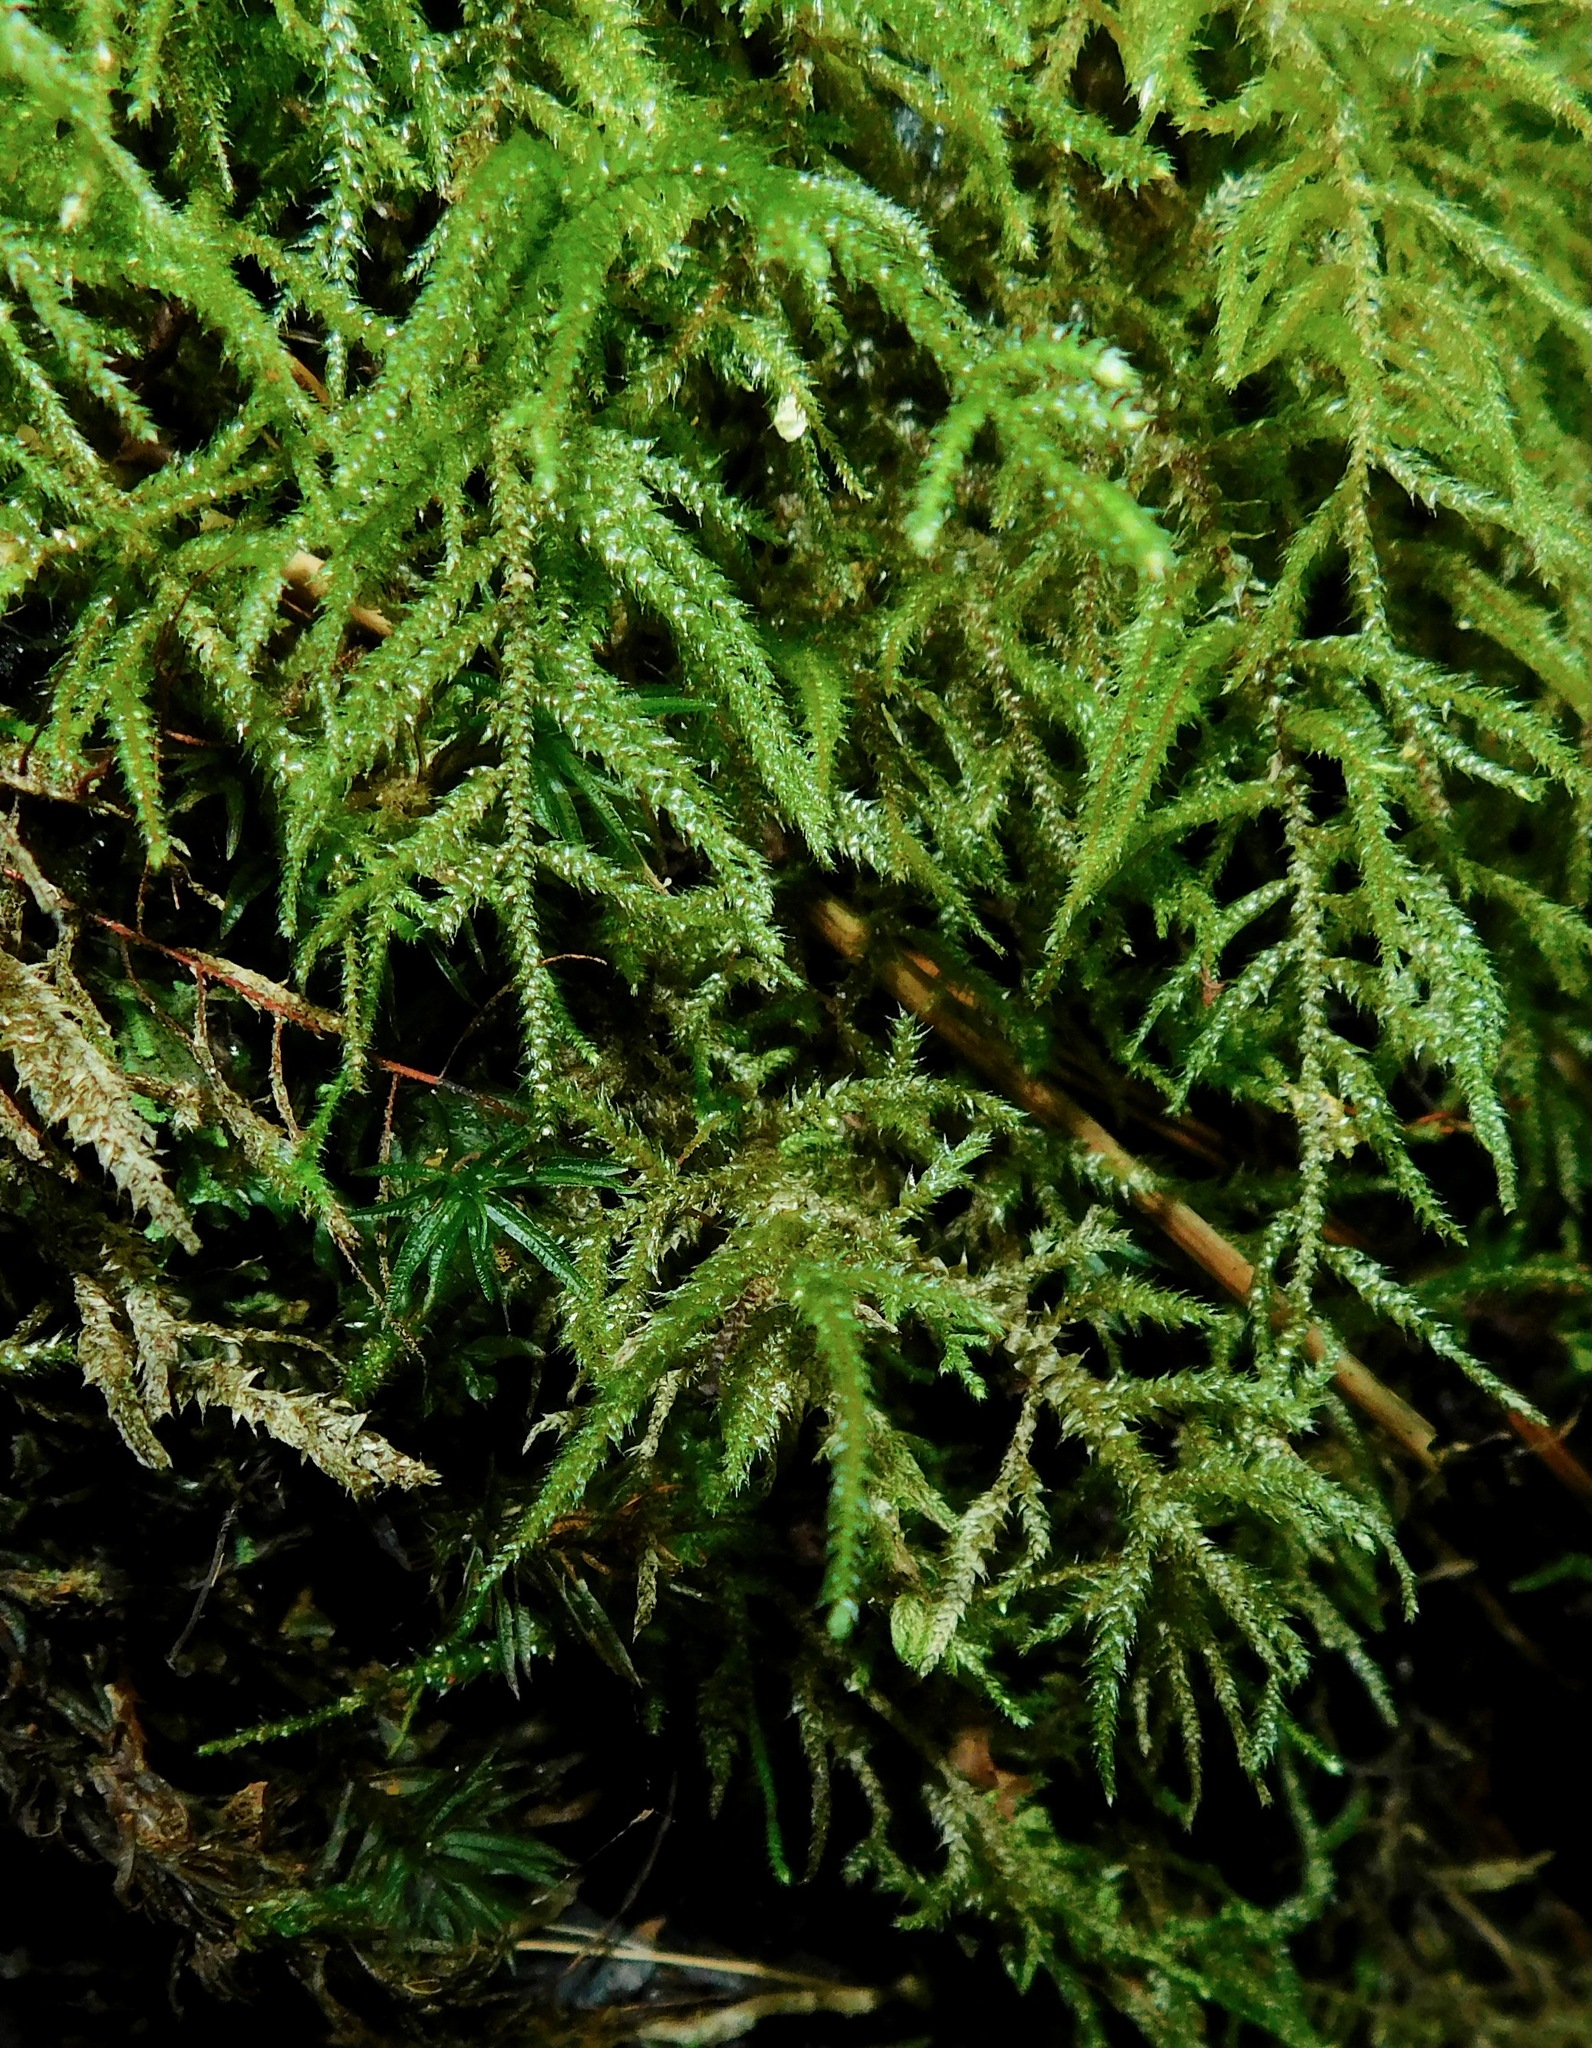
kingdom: Plantae
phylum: Bryophyta
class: Bryopsida
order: Hypnales
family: Hylocomiaceae
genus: Loeskeobryum
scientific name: Loeskeobryum brevirostre
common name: Short-beaked wood-moss
